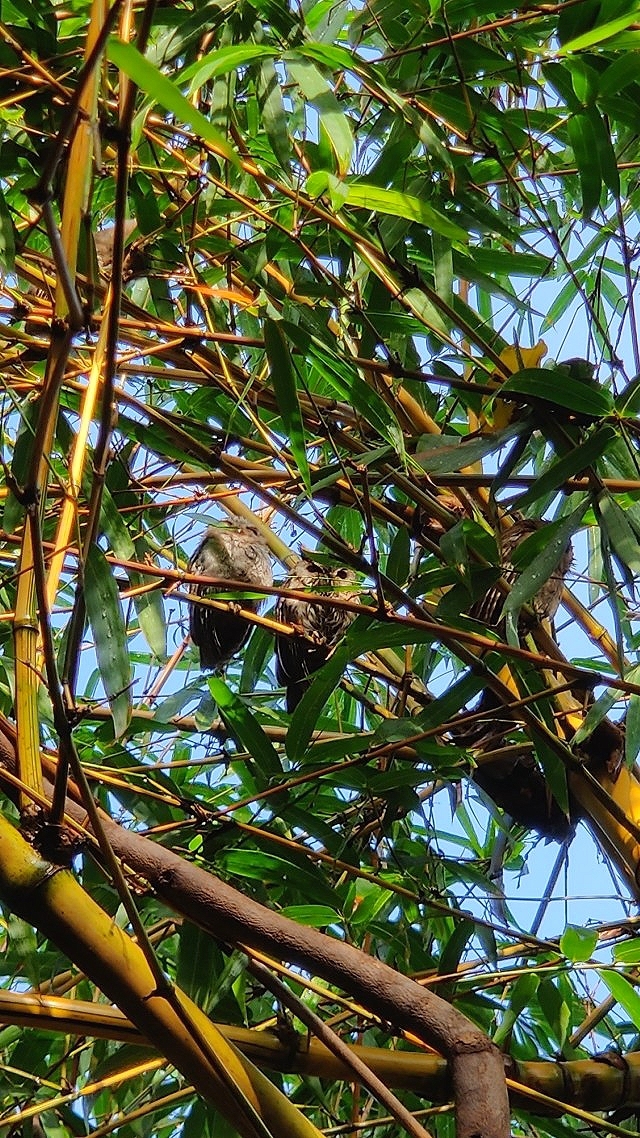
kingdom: Animalia
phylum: Chordata
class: Aves
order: Strigiformes
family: Strigidae
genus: Otus
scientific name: Otus bakkamoena
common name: Indian scops owl
